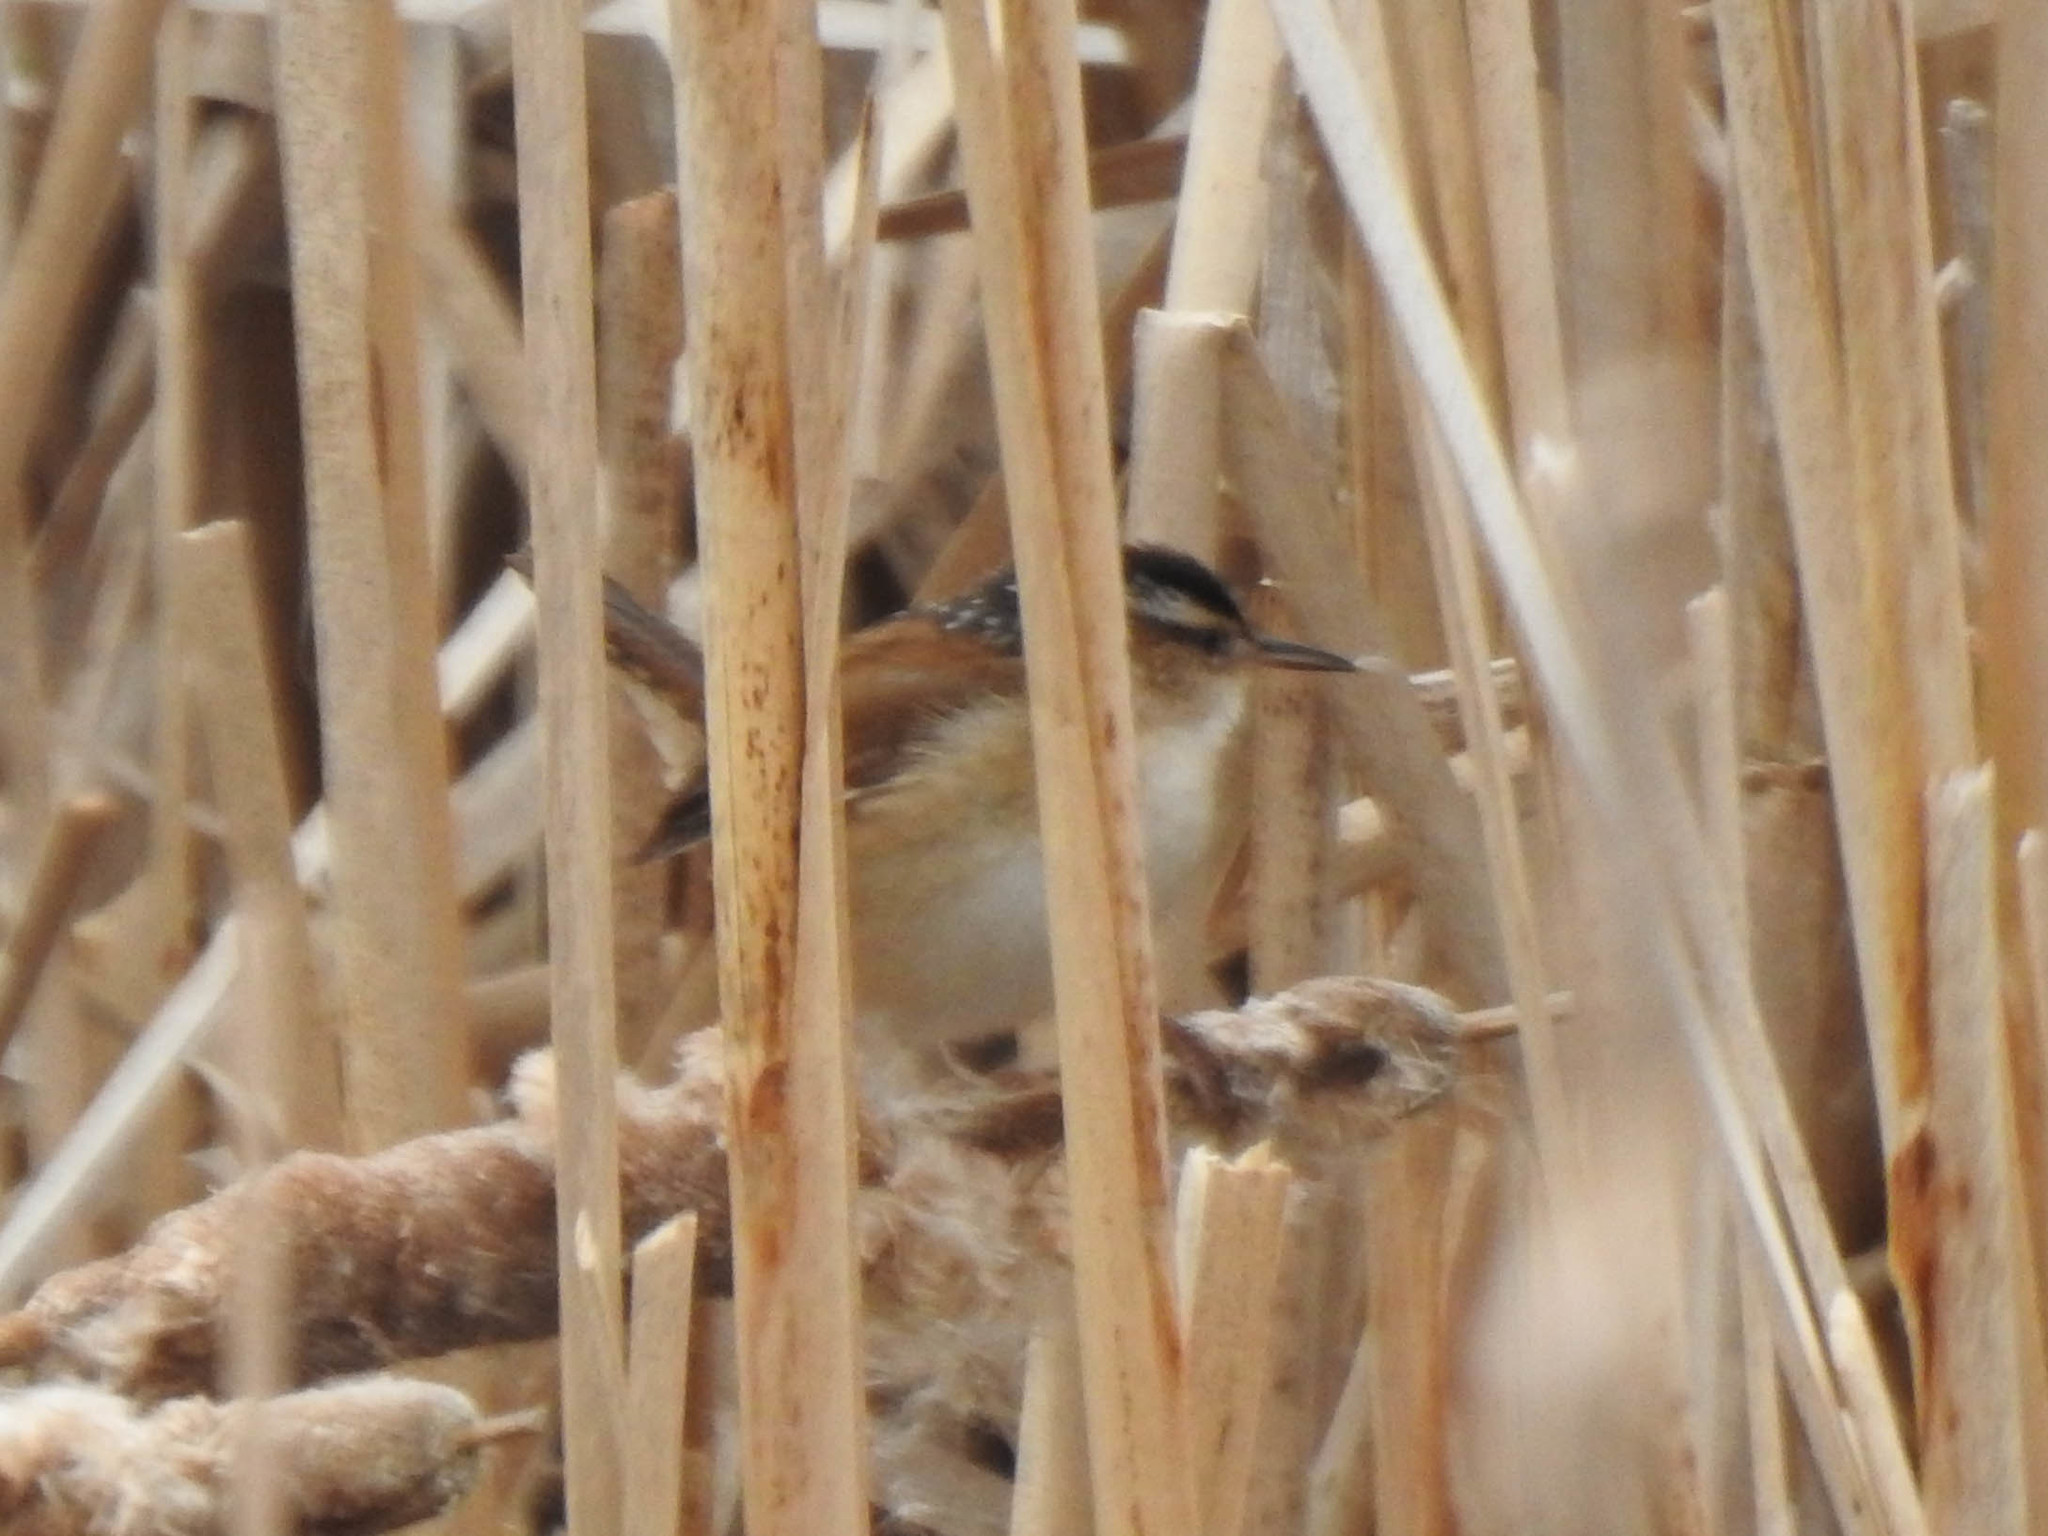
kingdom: Animalia
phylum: Chordata
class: Aves
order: Passeriformes
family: Troglodytidae
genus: Cistothorus
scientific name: Cistothorus palustris
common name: Marsh wren
